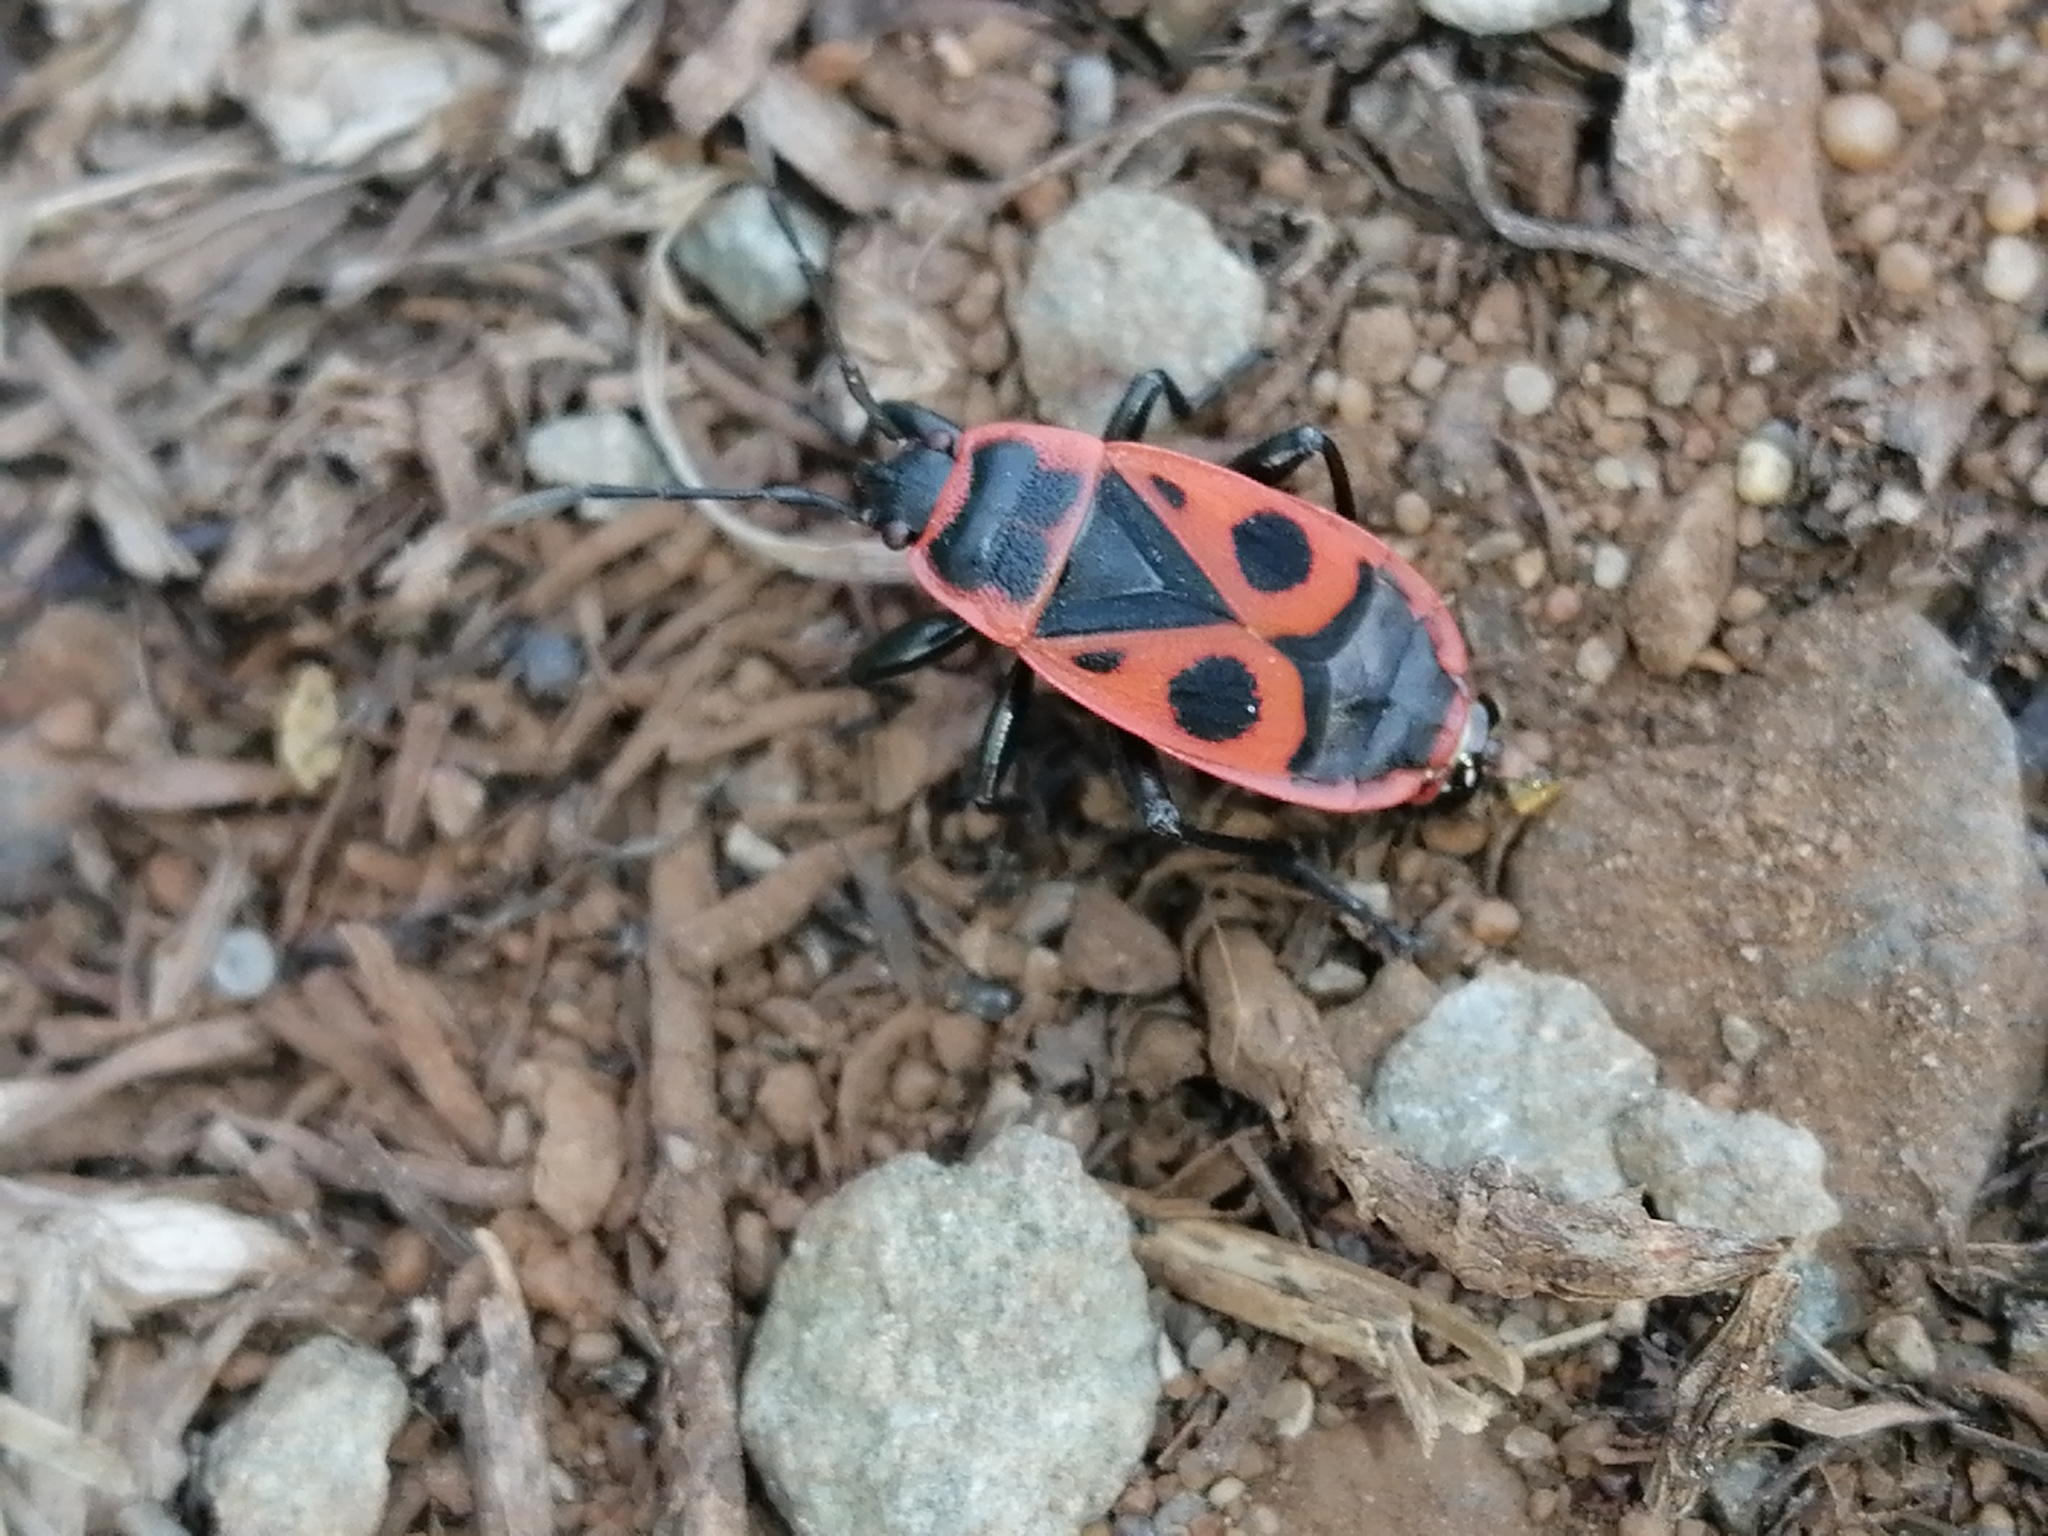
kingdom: Animalia
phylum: Arthropoda
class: Insecta
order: Hemiptera
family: Pyrrhocoridae
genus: Pyrrhocoris
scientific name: Pyrrhocoris apterus
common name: Firebug
